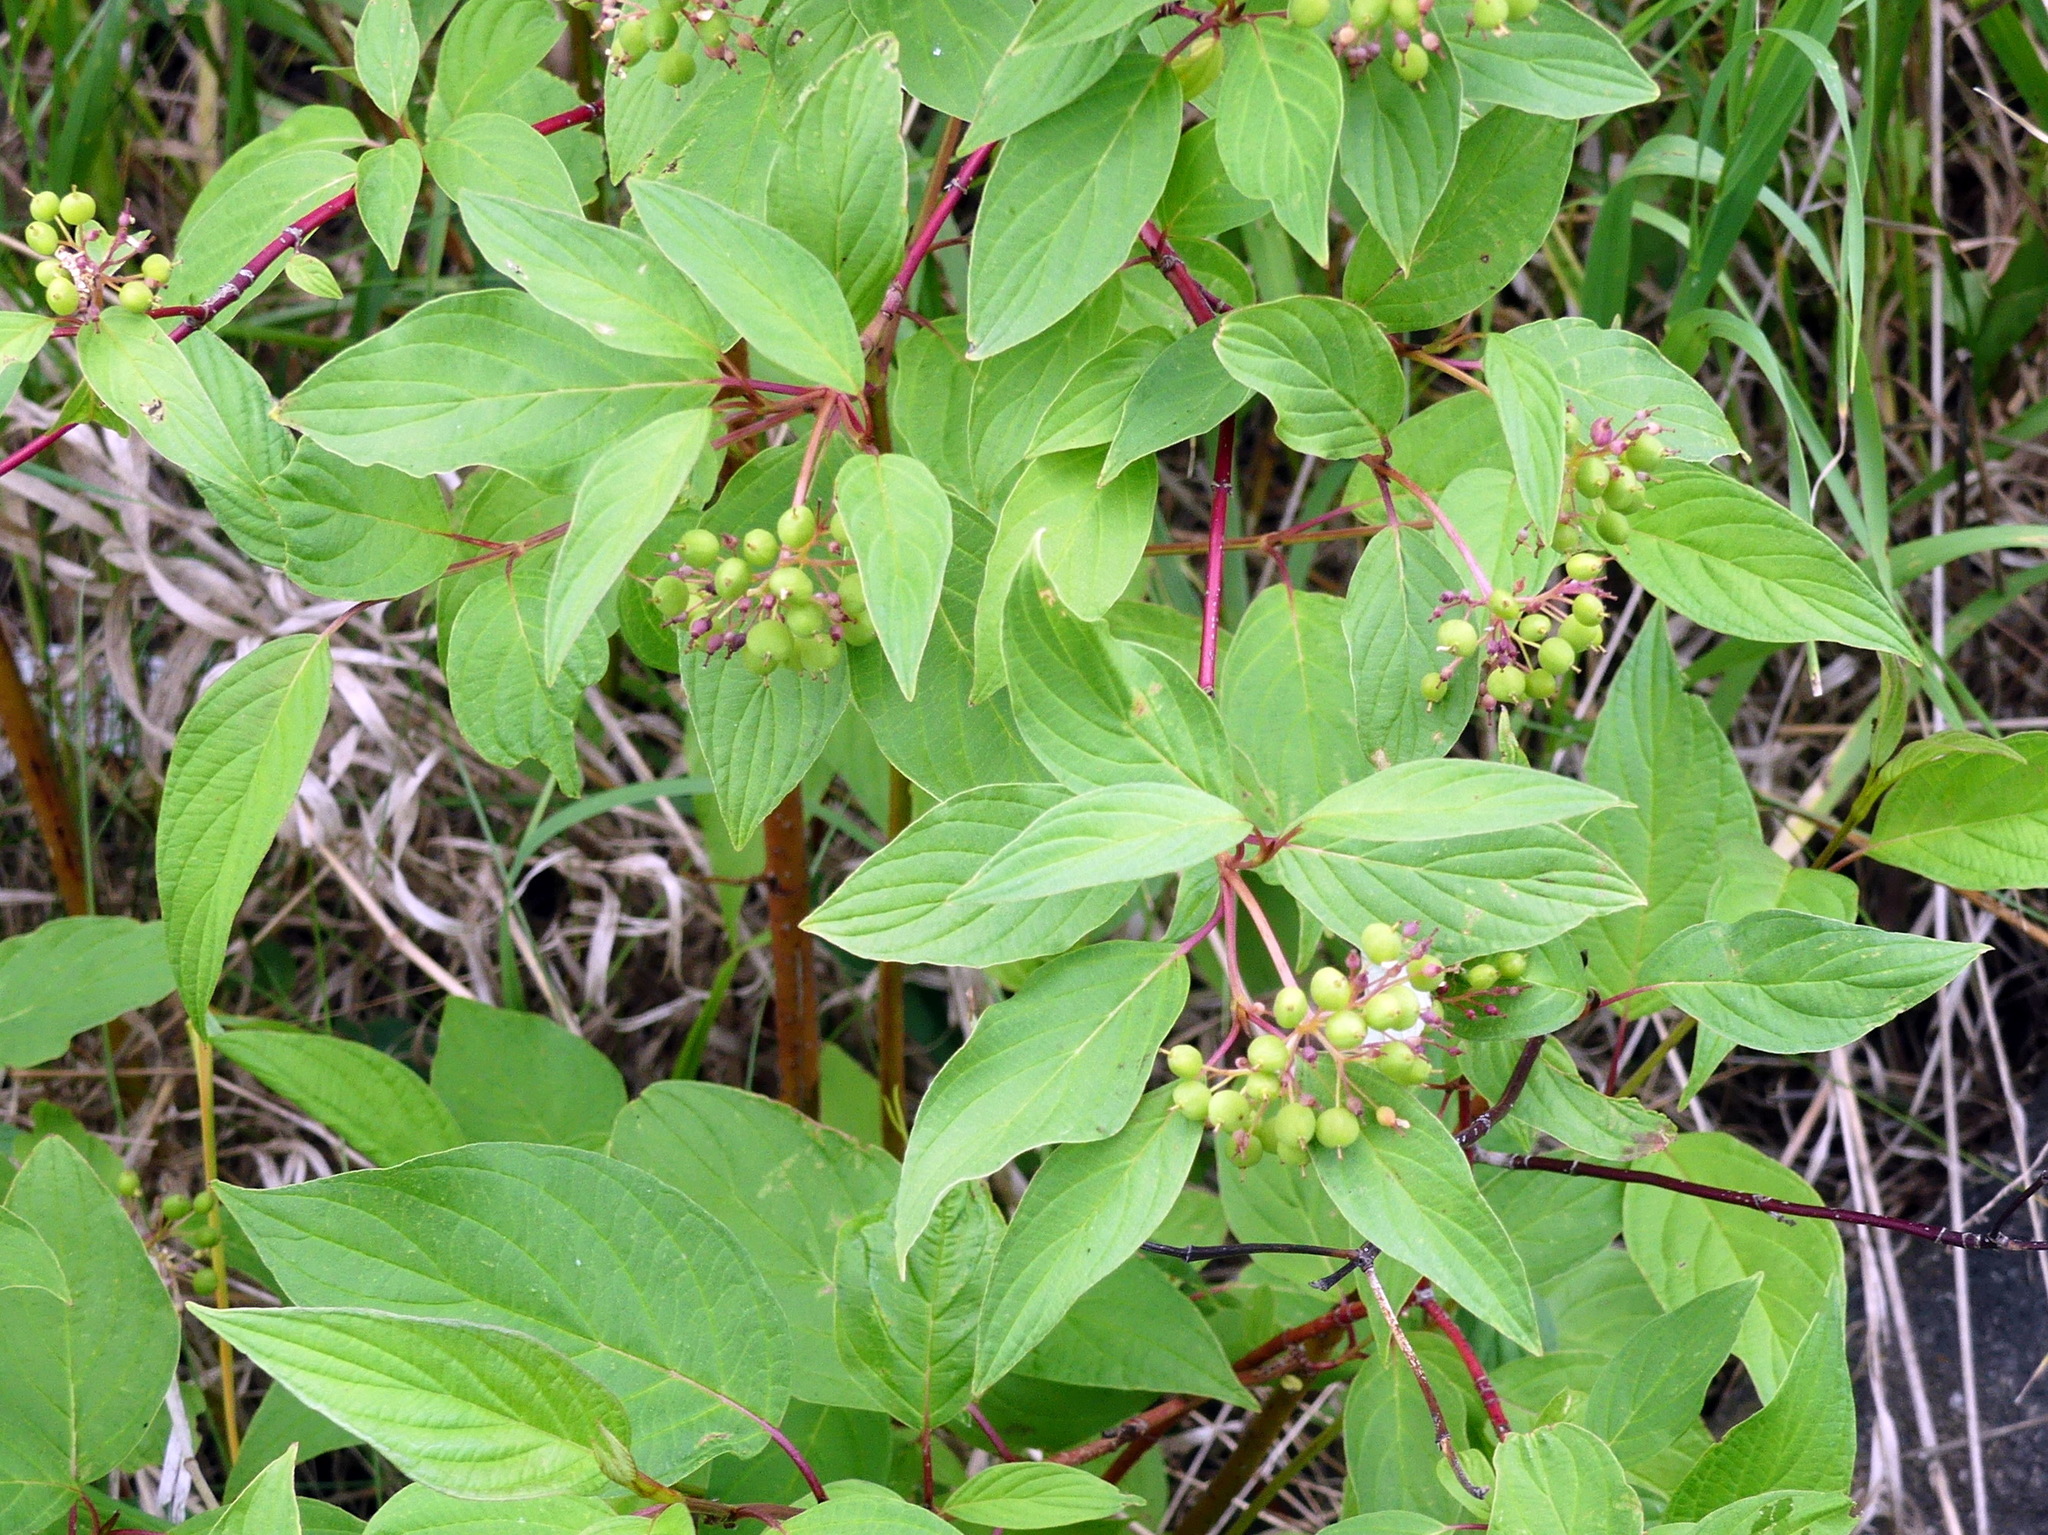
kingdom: Plantae
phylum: Tracheophyta
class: Magnoliopsida
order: Cornales
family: Cornaceae
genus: Cornus
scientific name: Cornus sericea
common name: Red-osier dogwood
